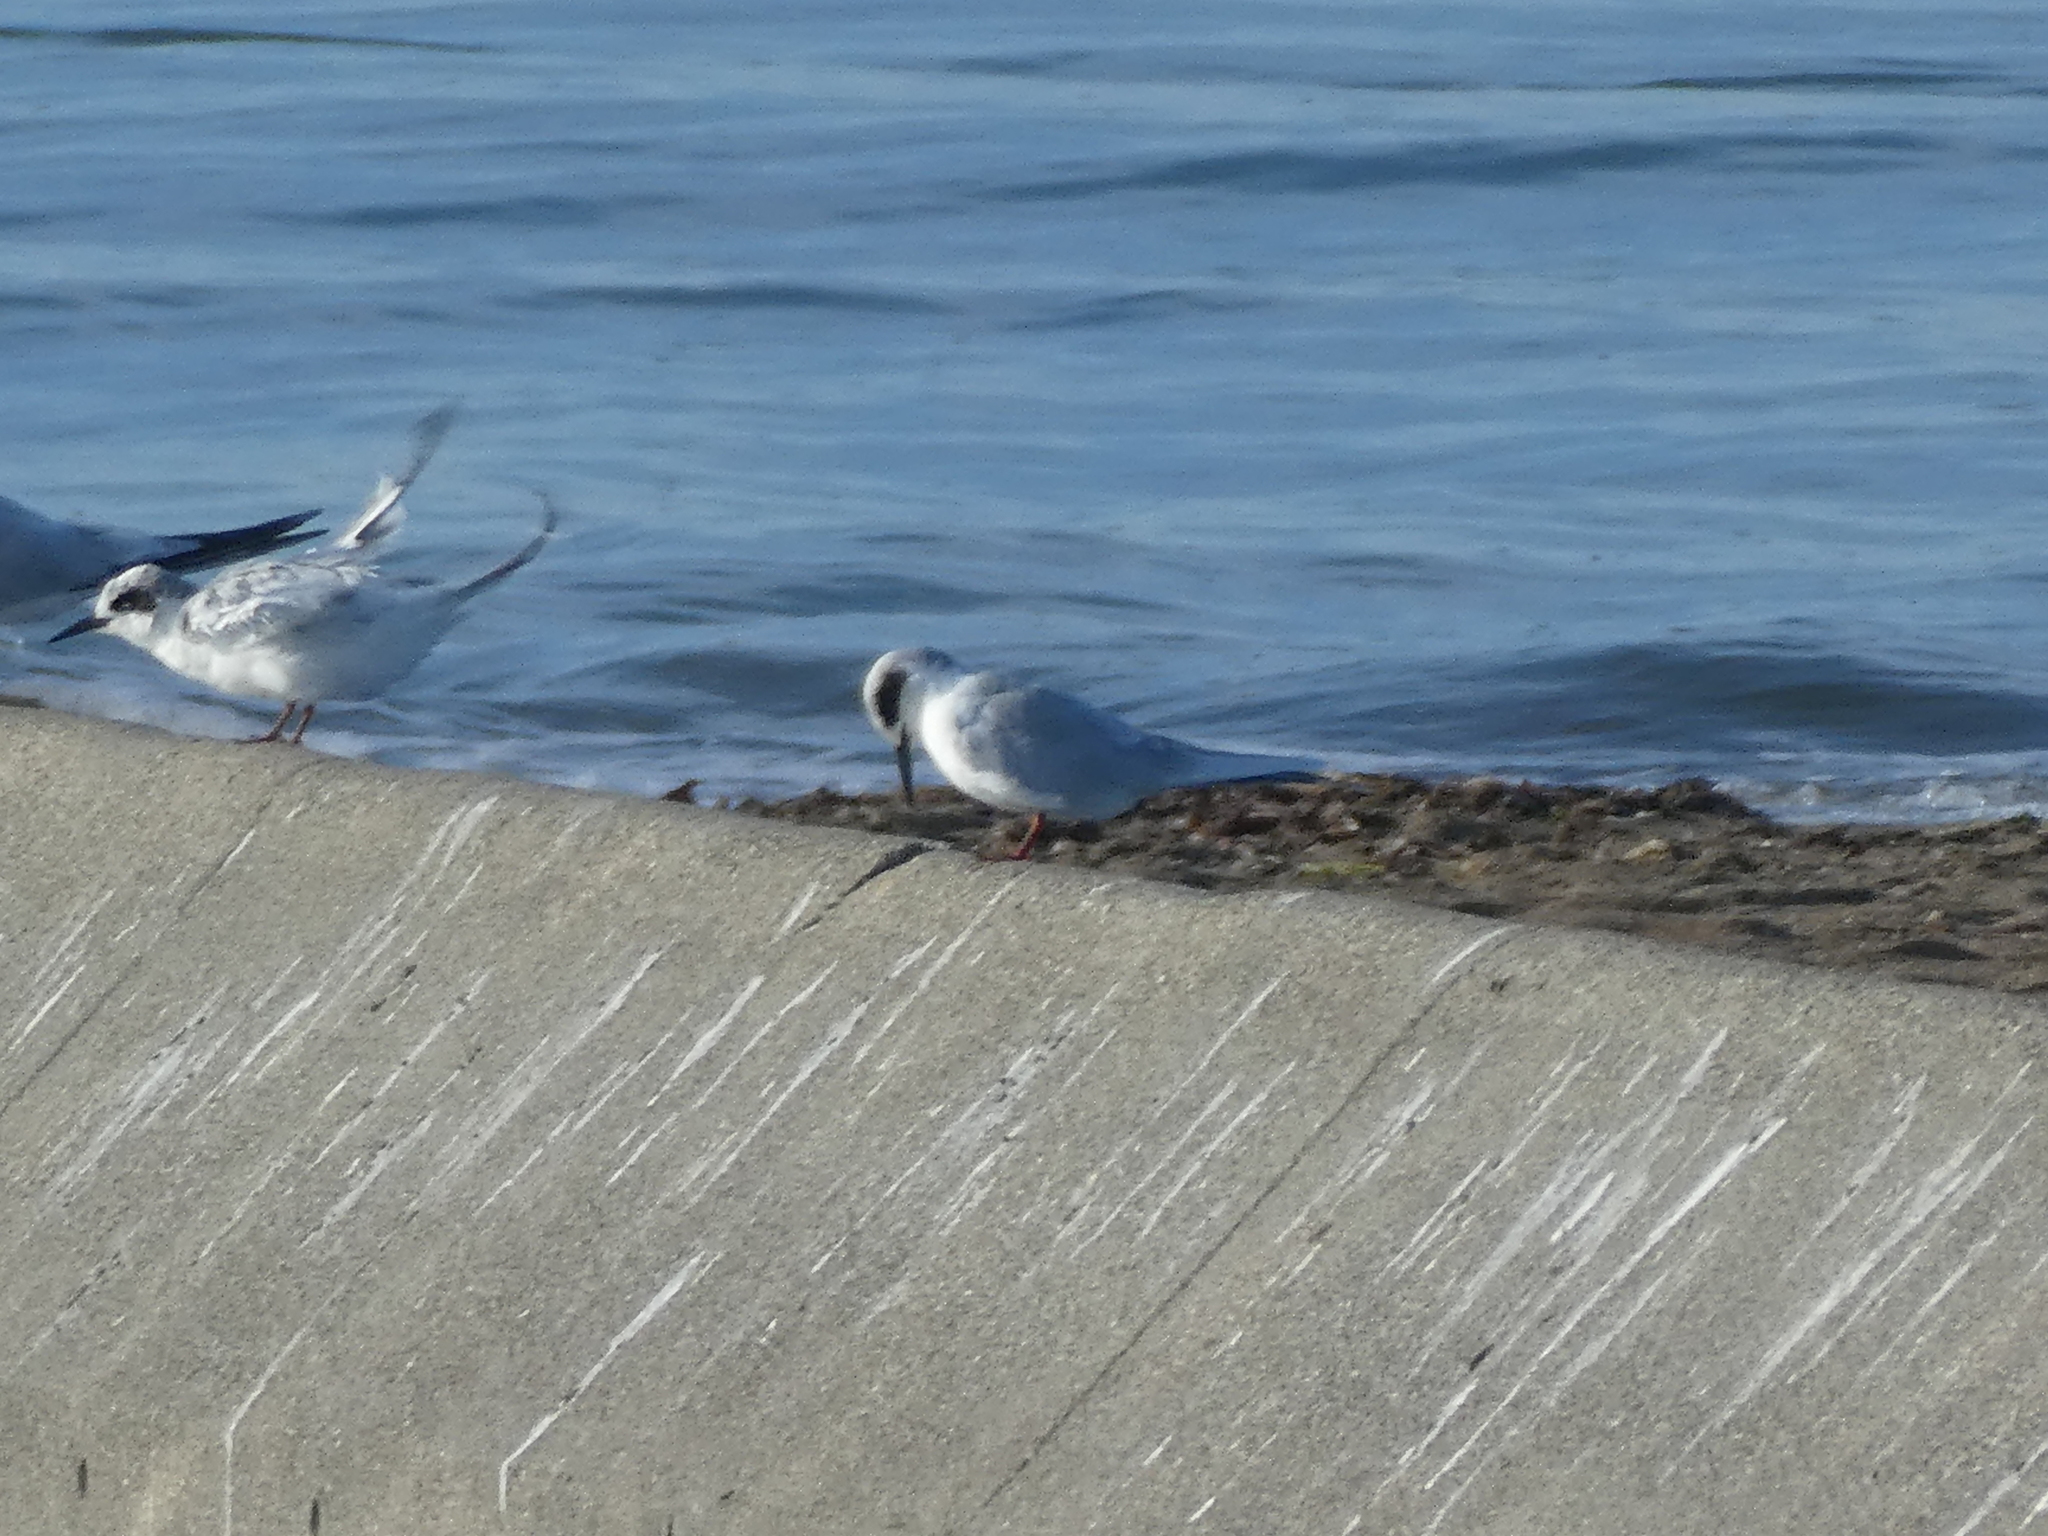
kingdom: Animalia
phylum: Chordata
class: Aves
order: Charadriiformes
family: Laridae
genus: Sterna
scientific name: Sterna forsteri
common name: Forster's tern
